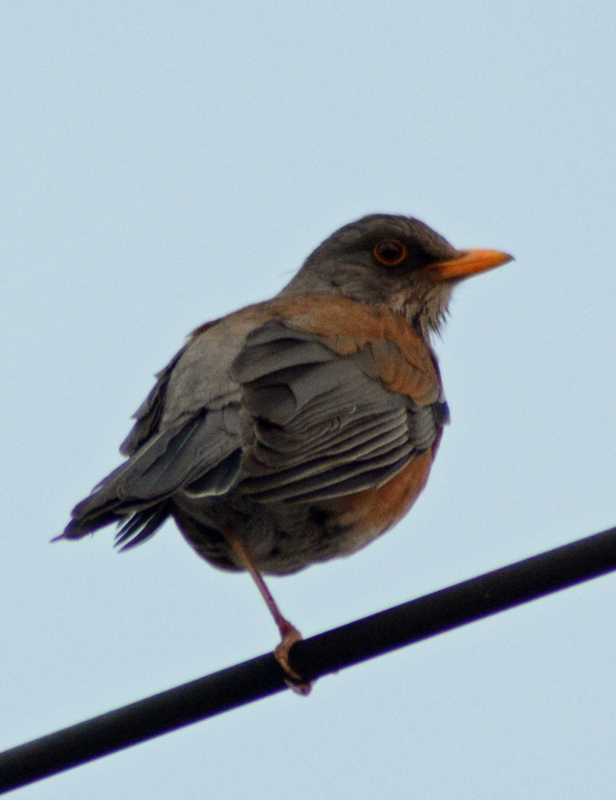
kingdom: Animalia
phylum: Chordata
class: Aves
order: Passeriformes
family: Turdidae
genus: Turdus
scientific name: Turdus rufopalliatus
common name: Rufous-backed robin
